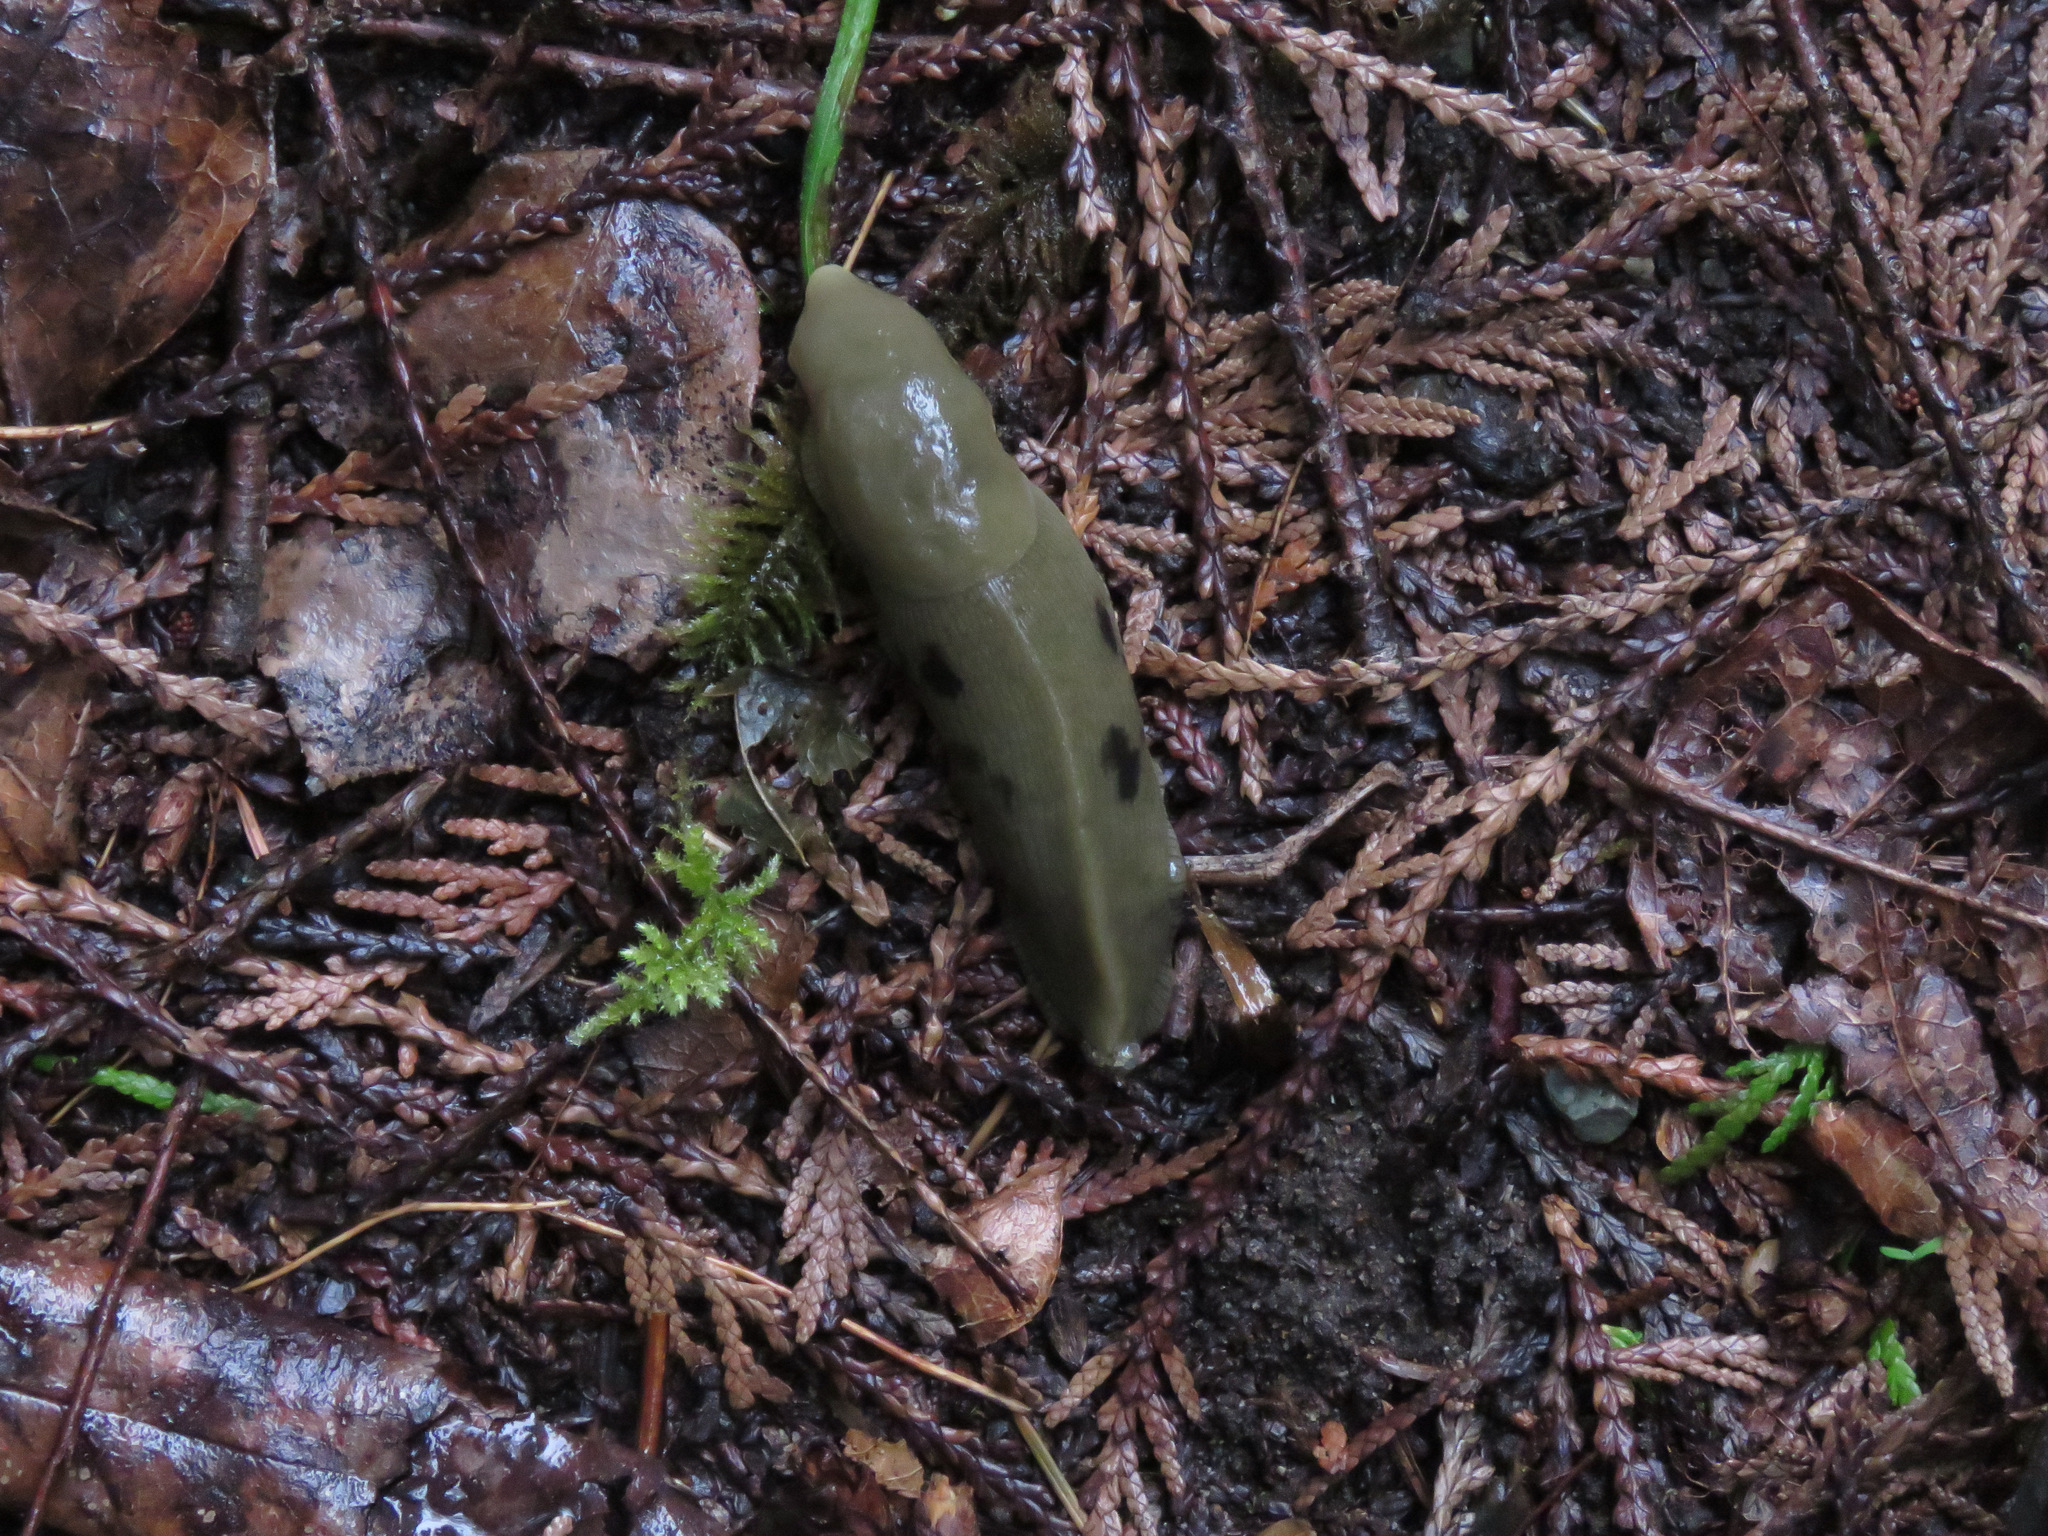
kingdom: Animalia
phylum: Mollusca
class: Gastropoda
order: Stylommatophora
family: Ariolimacidae
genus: Ariolimax
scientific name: Ariolimax columbianus
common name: Pacific banana slug
